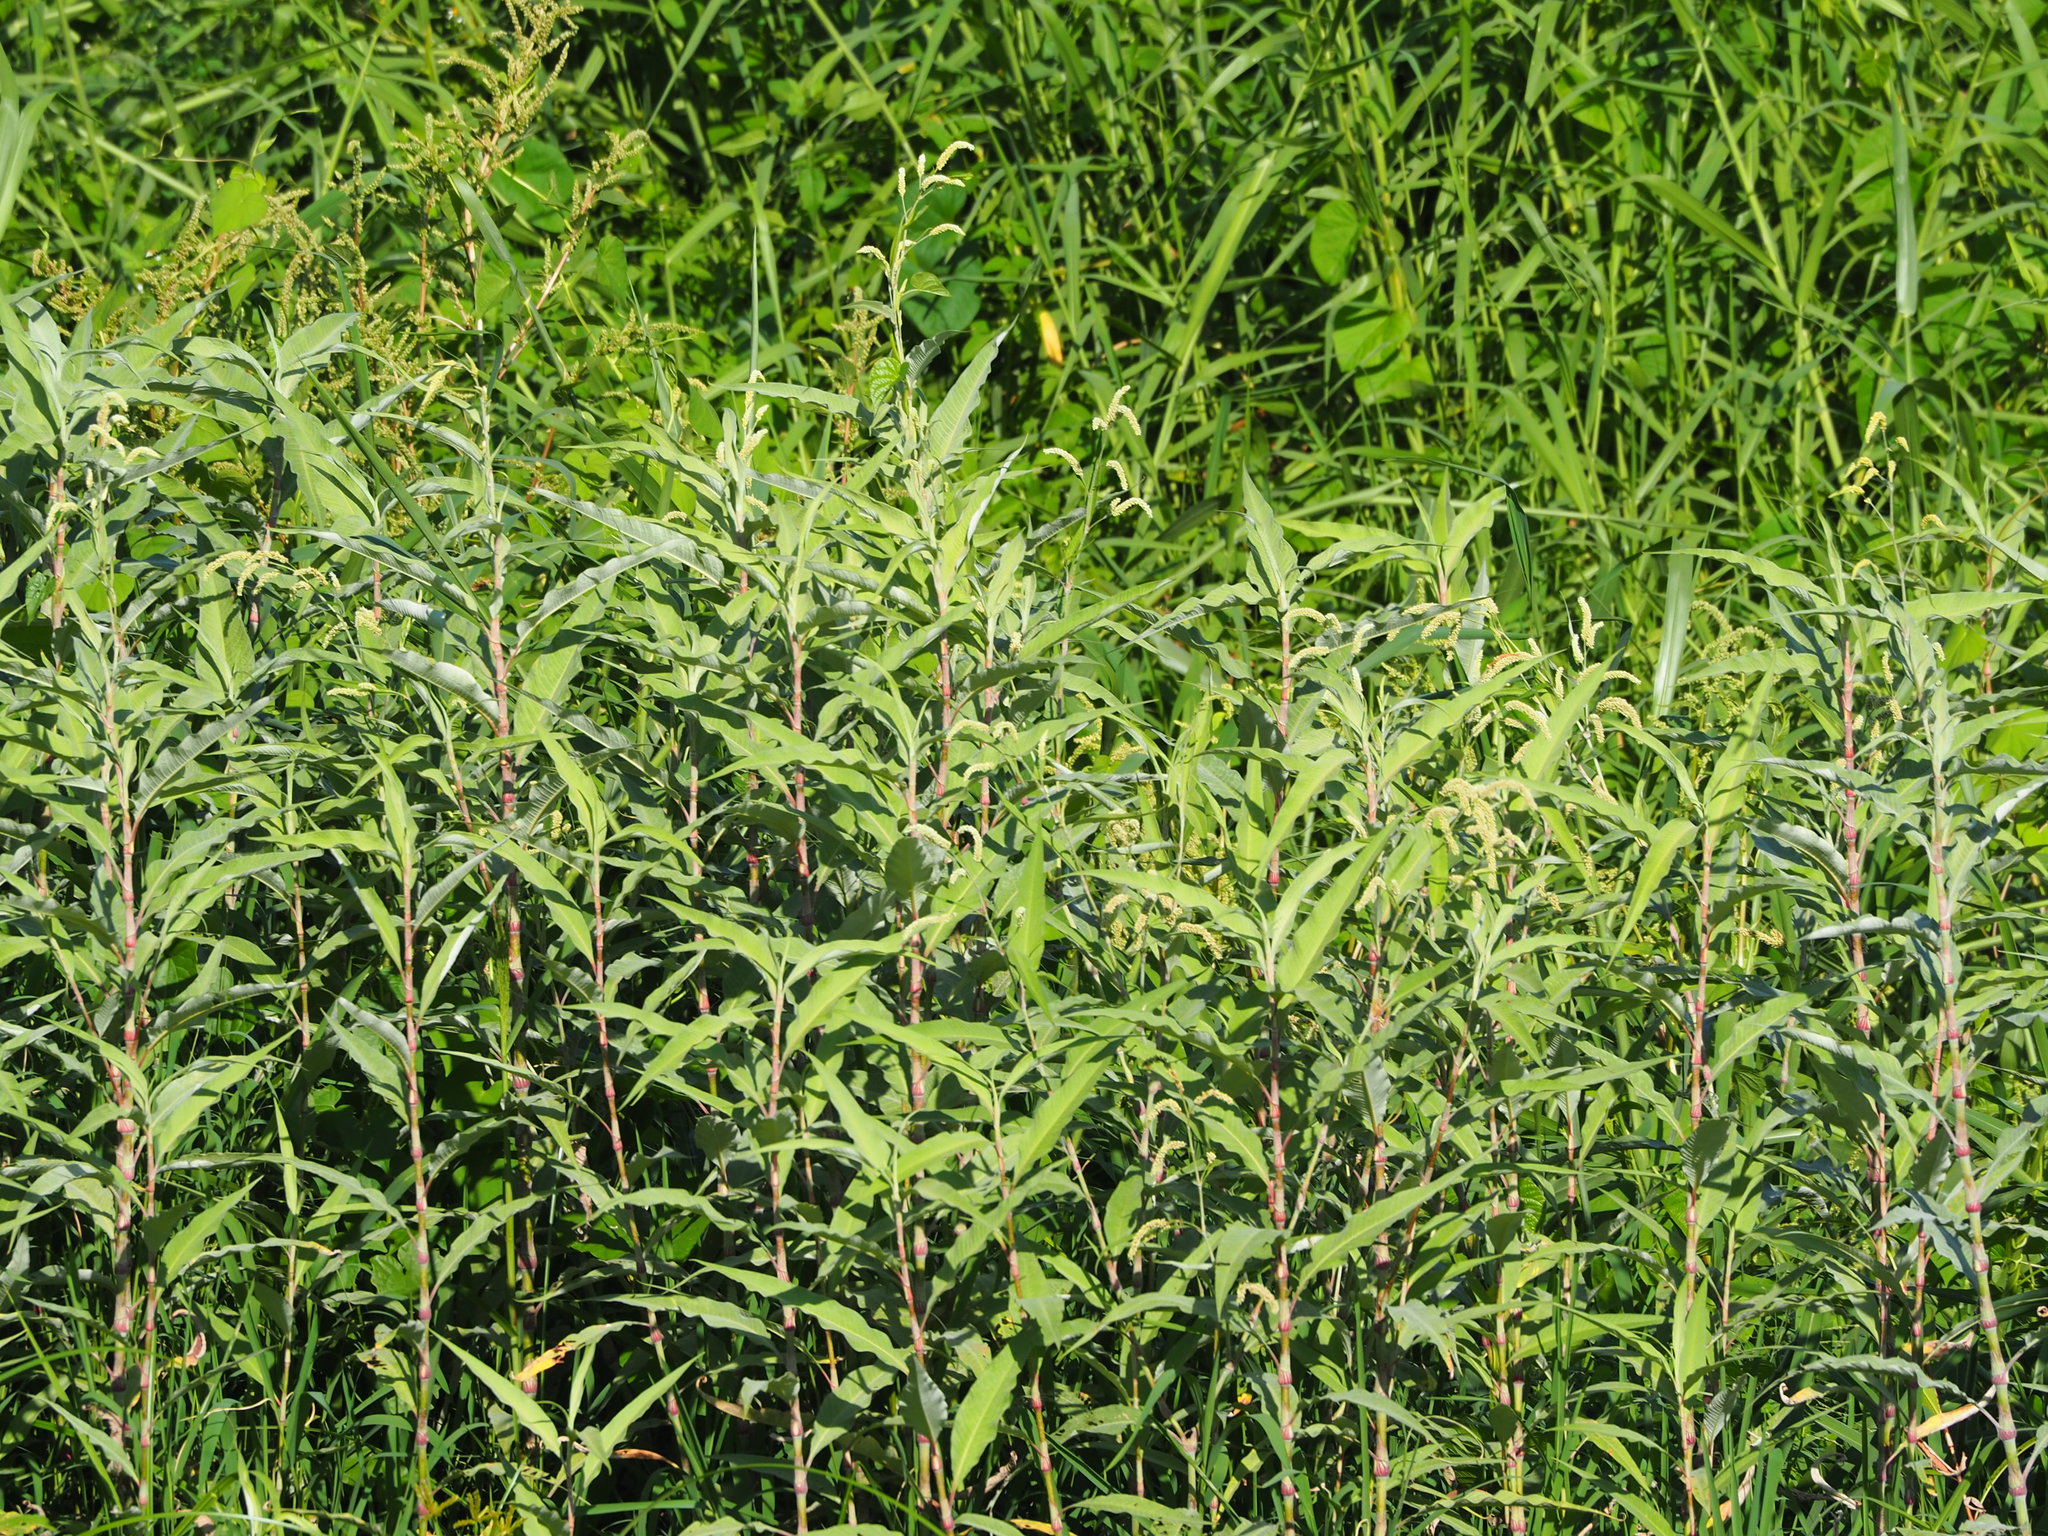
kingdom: Plantae
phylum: Tracheophyta
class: Magnoliopsida
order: Caryophyllales
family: Polygonaceae
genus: Persicaria
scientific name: Persicaria lanata
